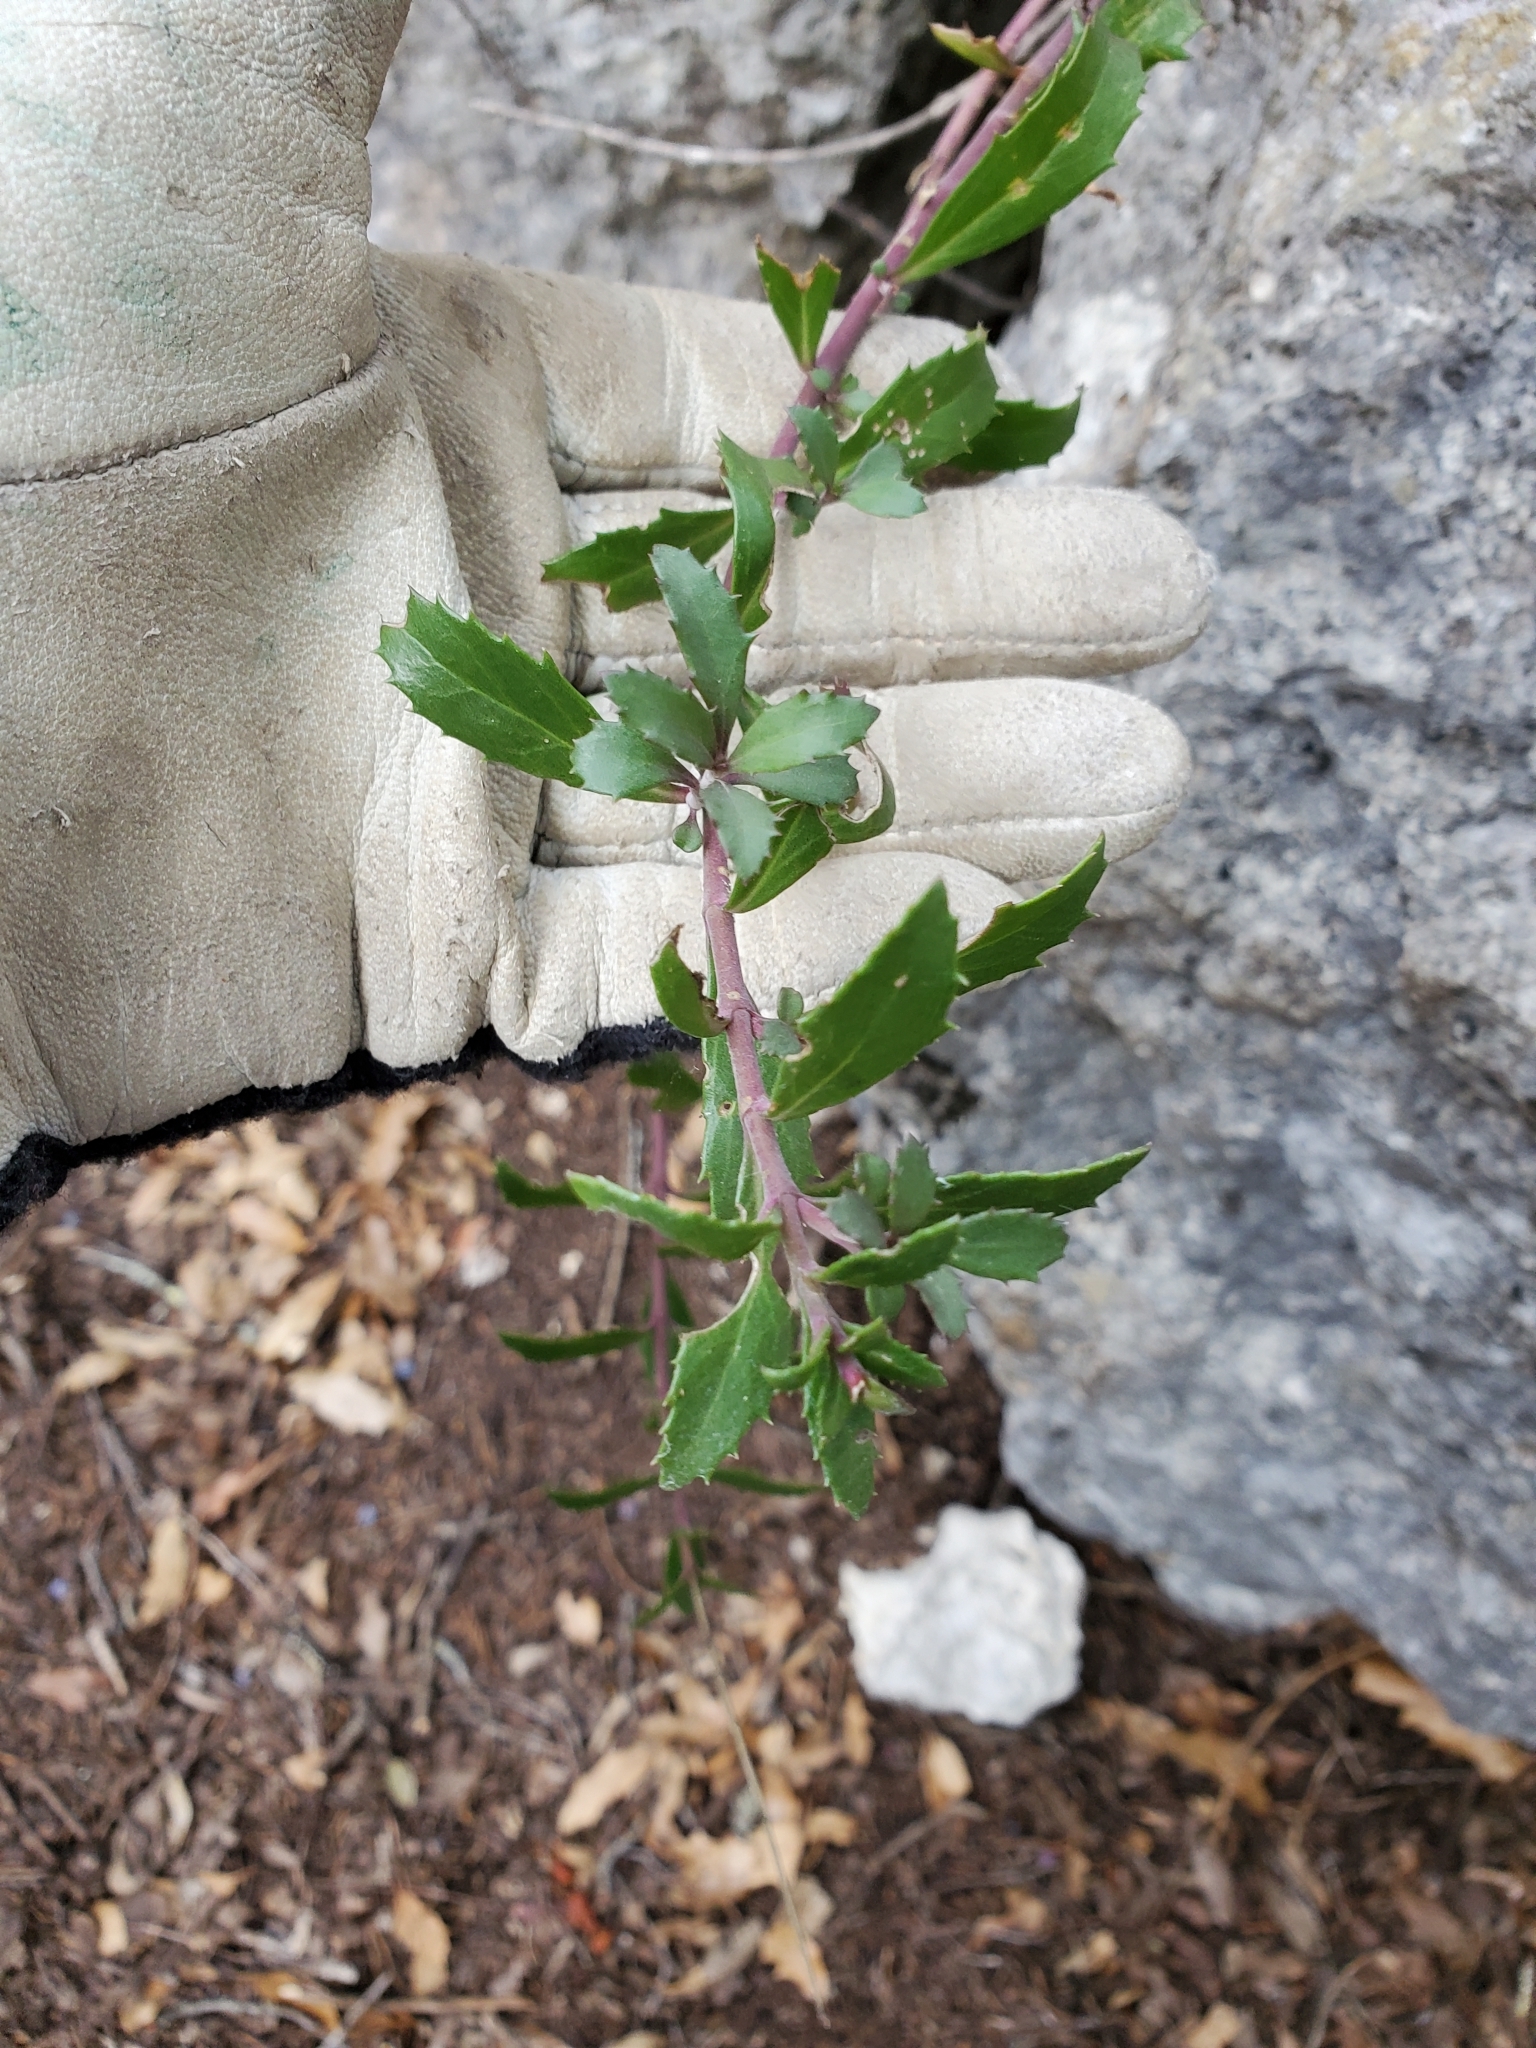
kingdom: Plantae
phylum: Tracheophyta
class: Magnoliopsida
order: Lamiales
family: Plantaginaceae
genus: Penstemon
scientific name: Penstemon baccharifolius
